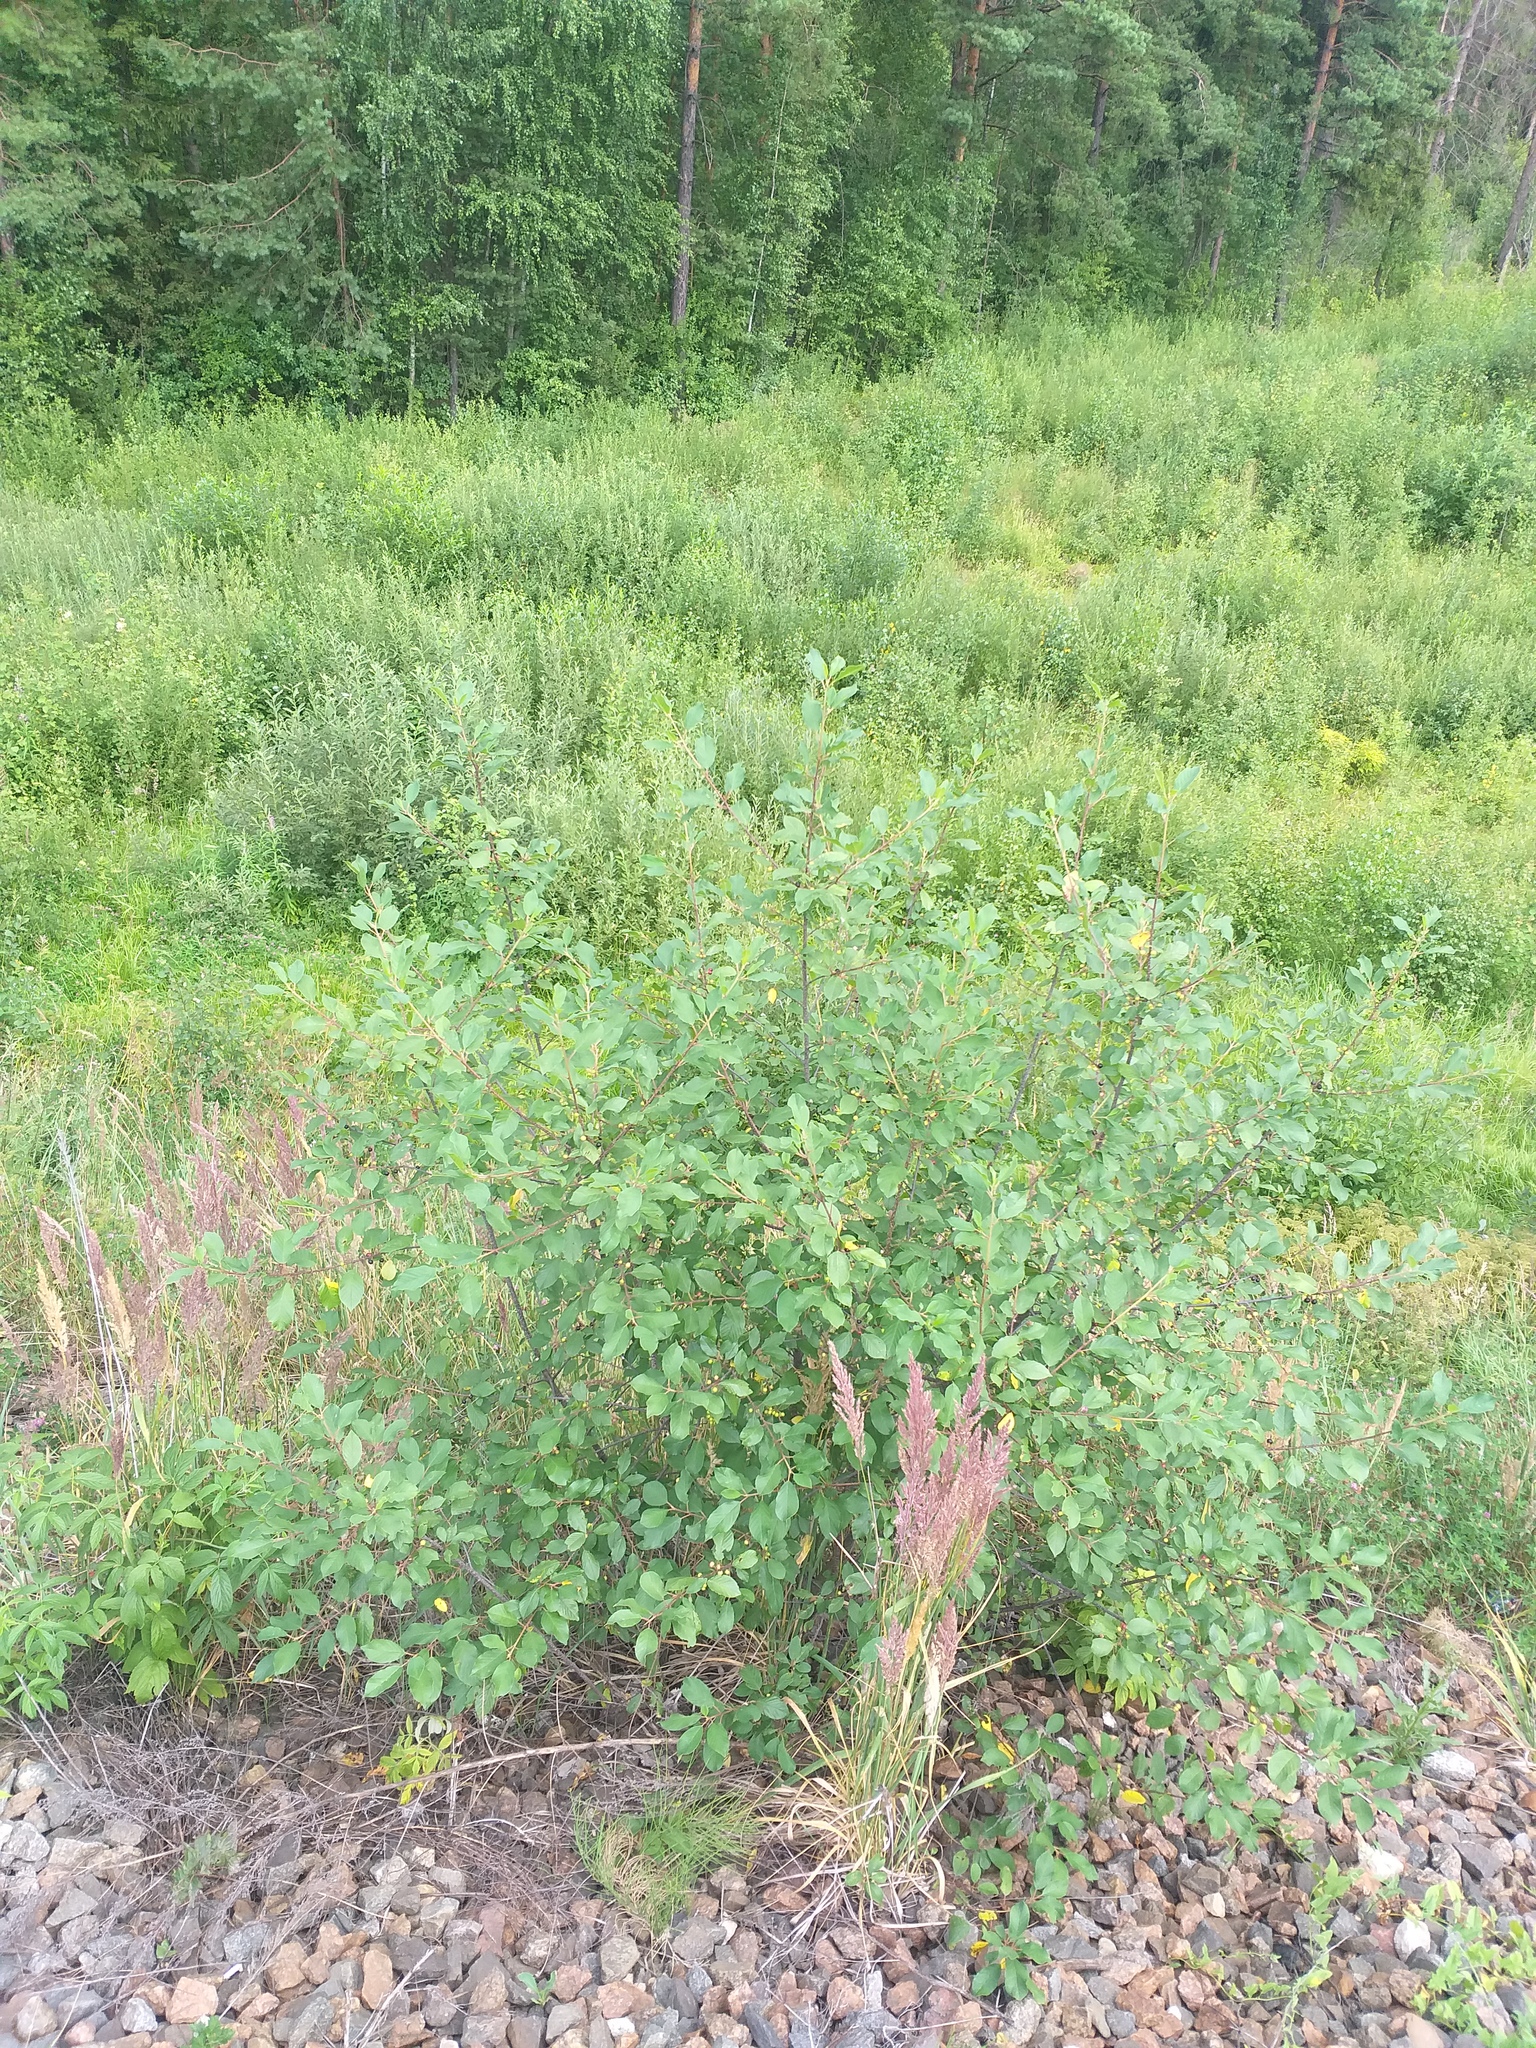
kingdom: Plantae
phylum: Tracheophyta
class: Magnoliopsida
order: Rosales
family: Rhamnaceae
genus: Frangula
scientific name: Frangula alnus
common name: Alder buckthorn
